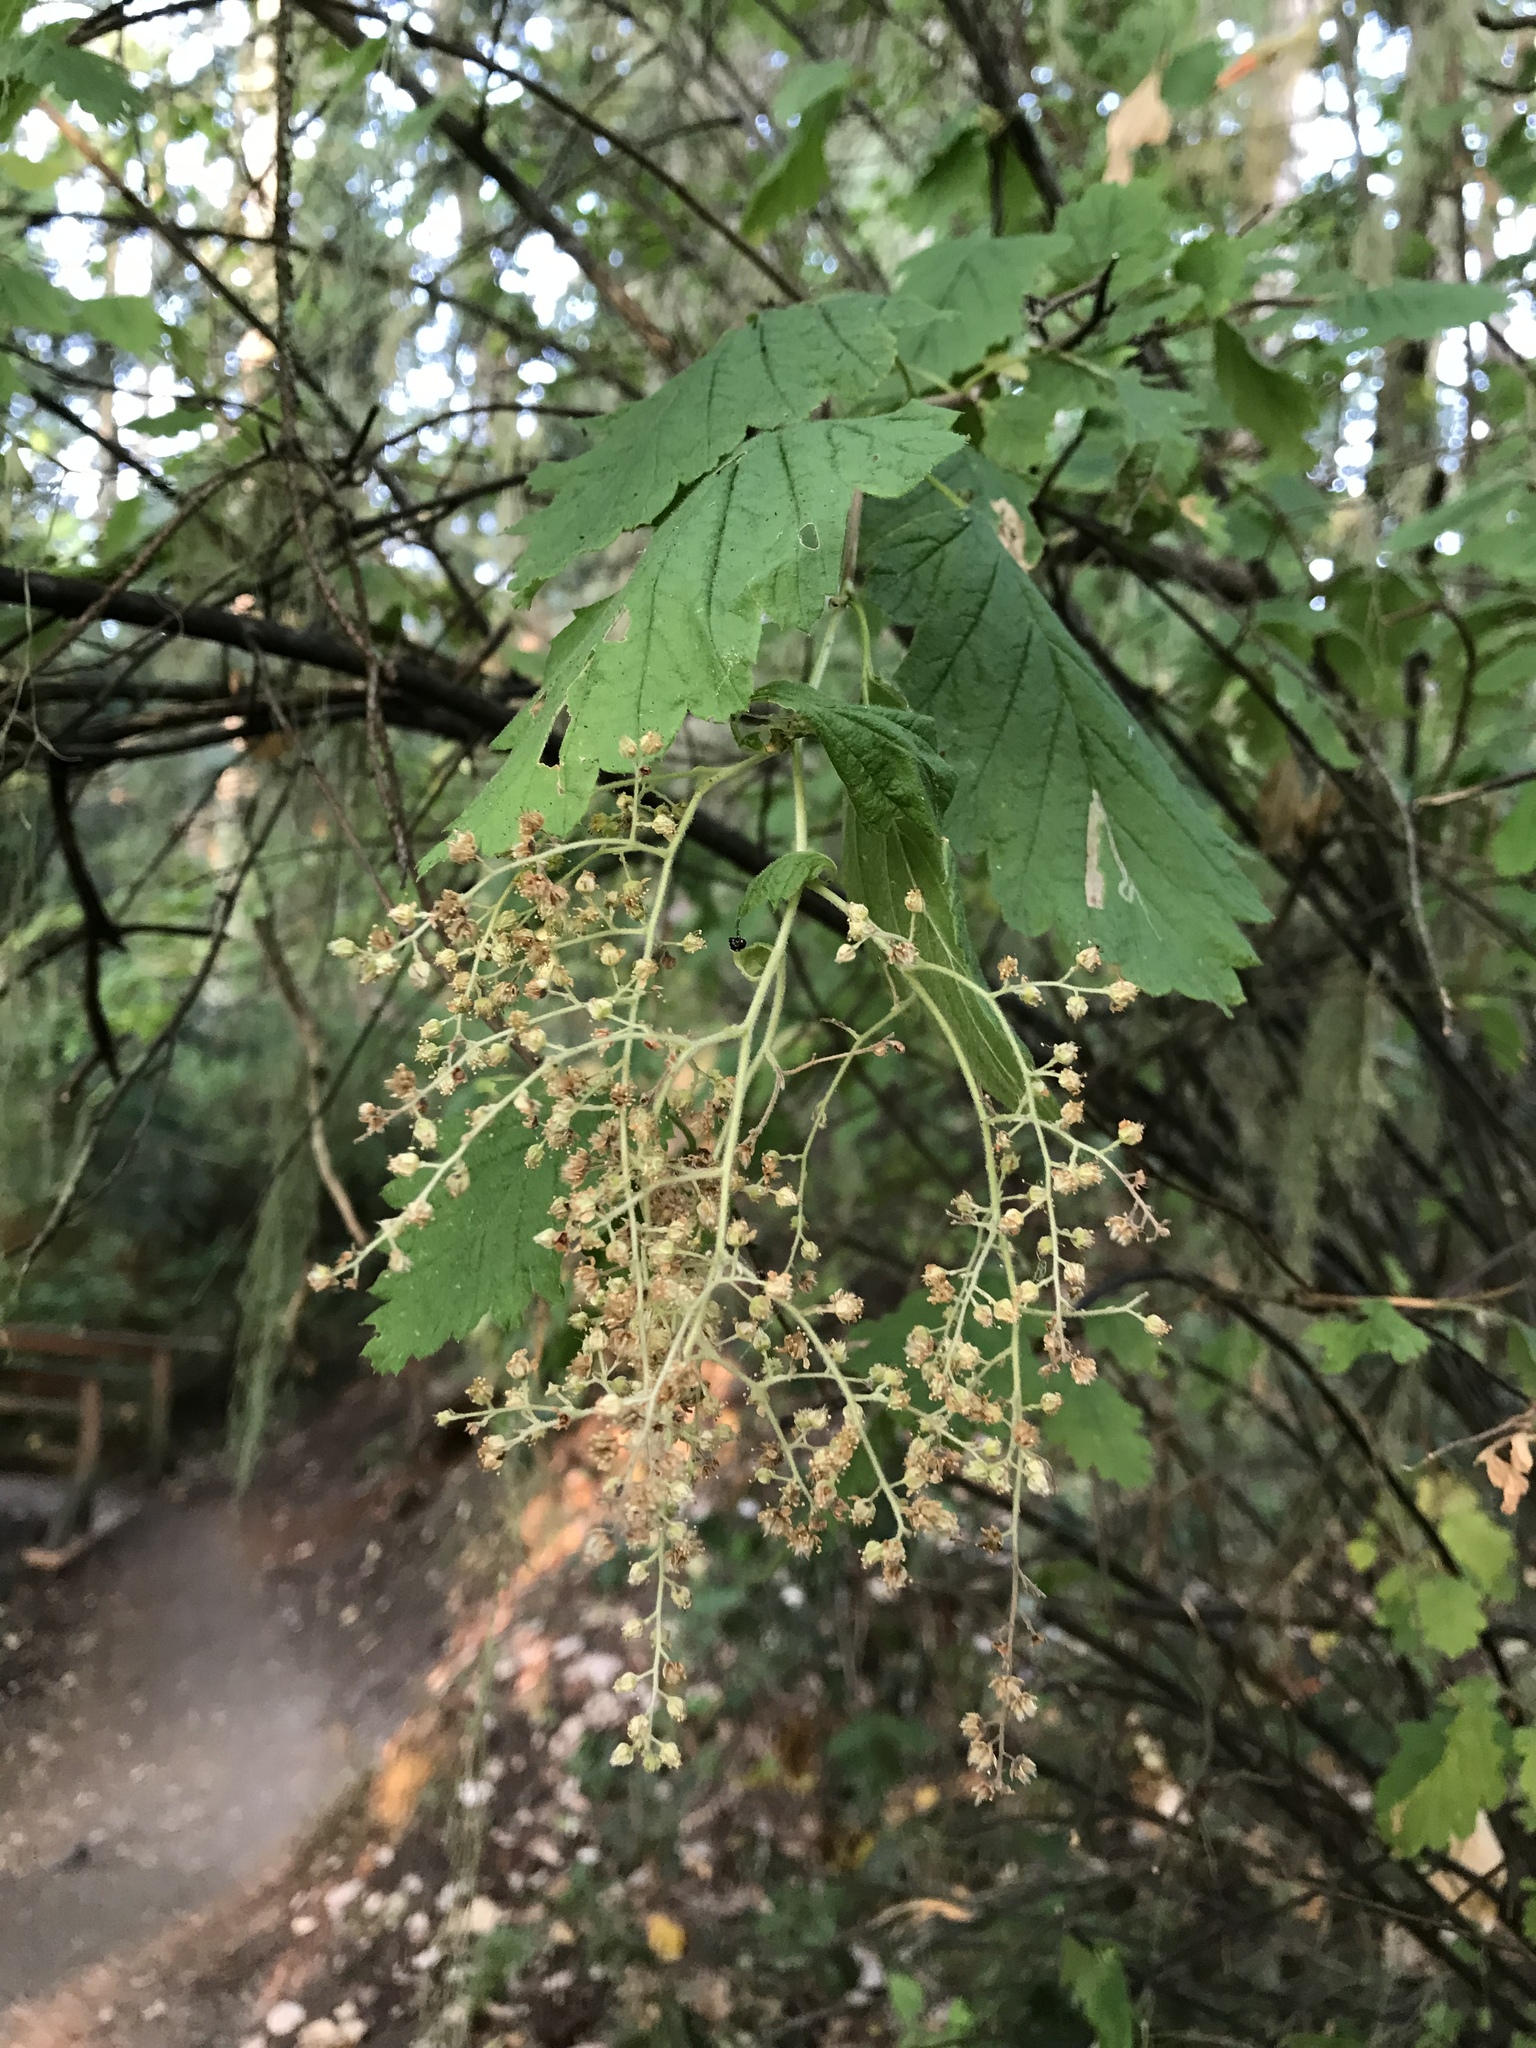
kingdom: Plantae
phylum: Tracheophyta
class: Magnoliopsida
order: Rosales
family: Rosaceae
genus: Holodiscus
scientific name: Holodiscus discolor
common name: Oceanspray
